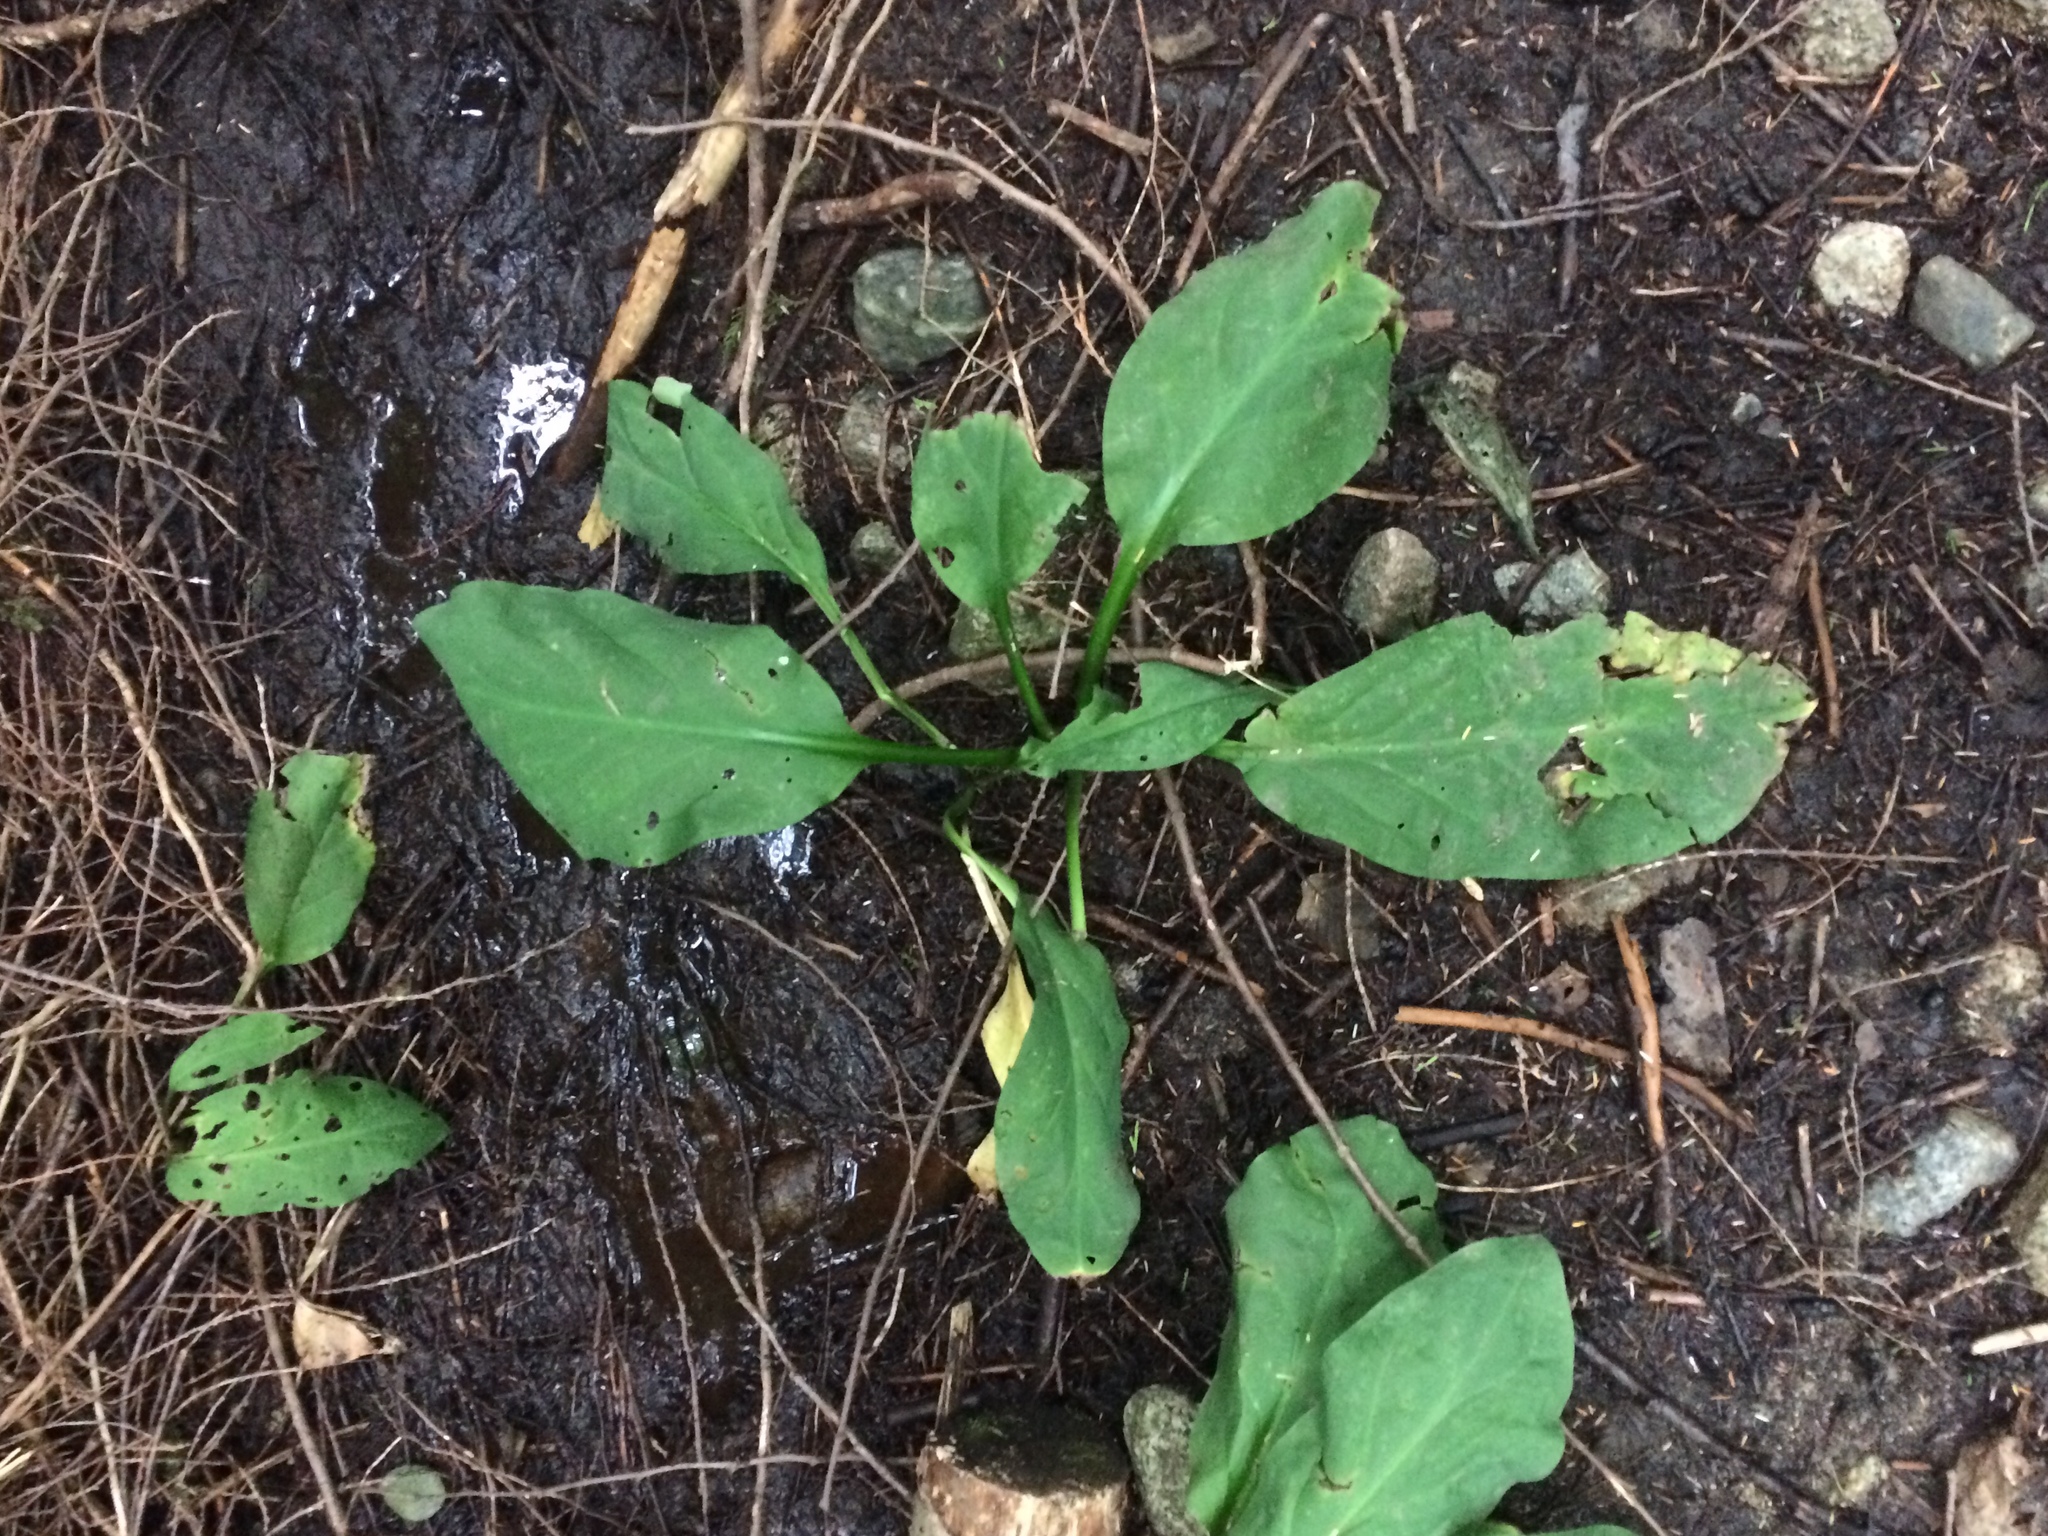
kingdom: Plantae
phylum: Tracheophyta
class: Liliopsida
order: Alismatales
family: Araceae
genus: Lysichiton
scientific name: Lysichiton americanus
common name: American skunk cabbage
